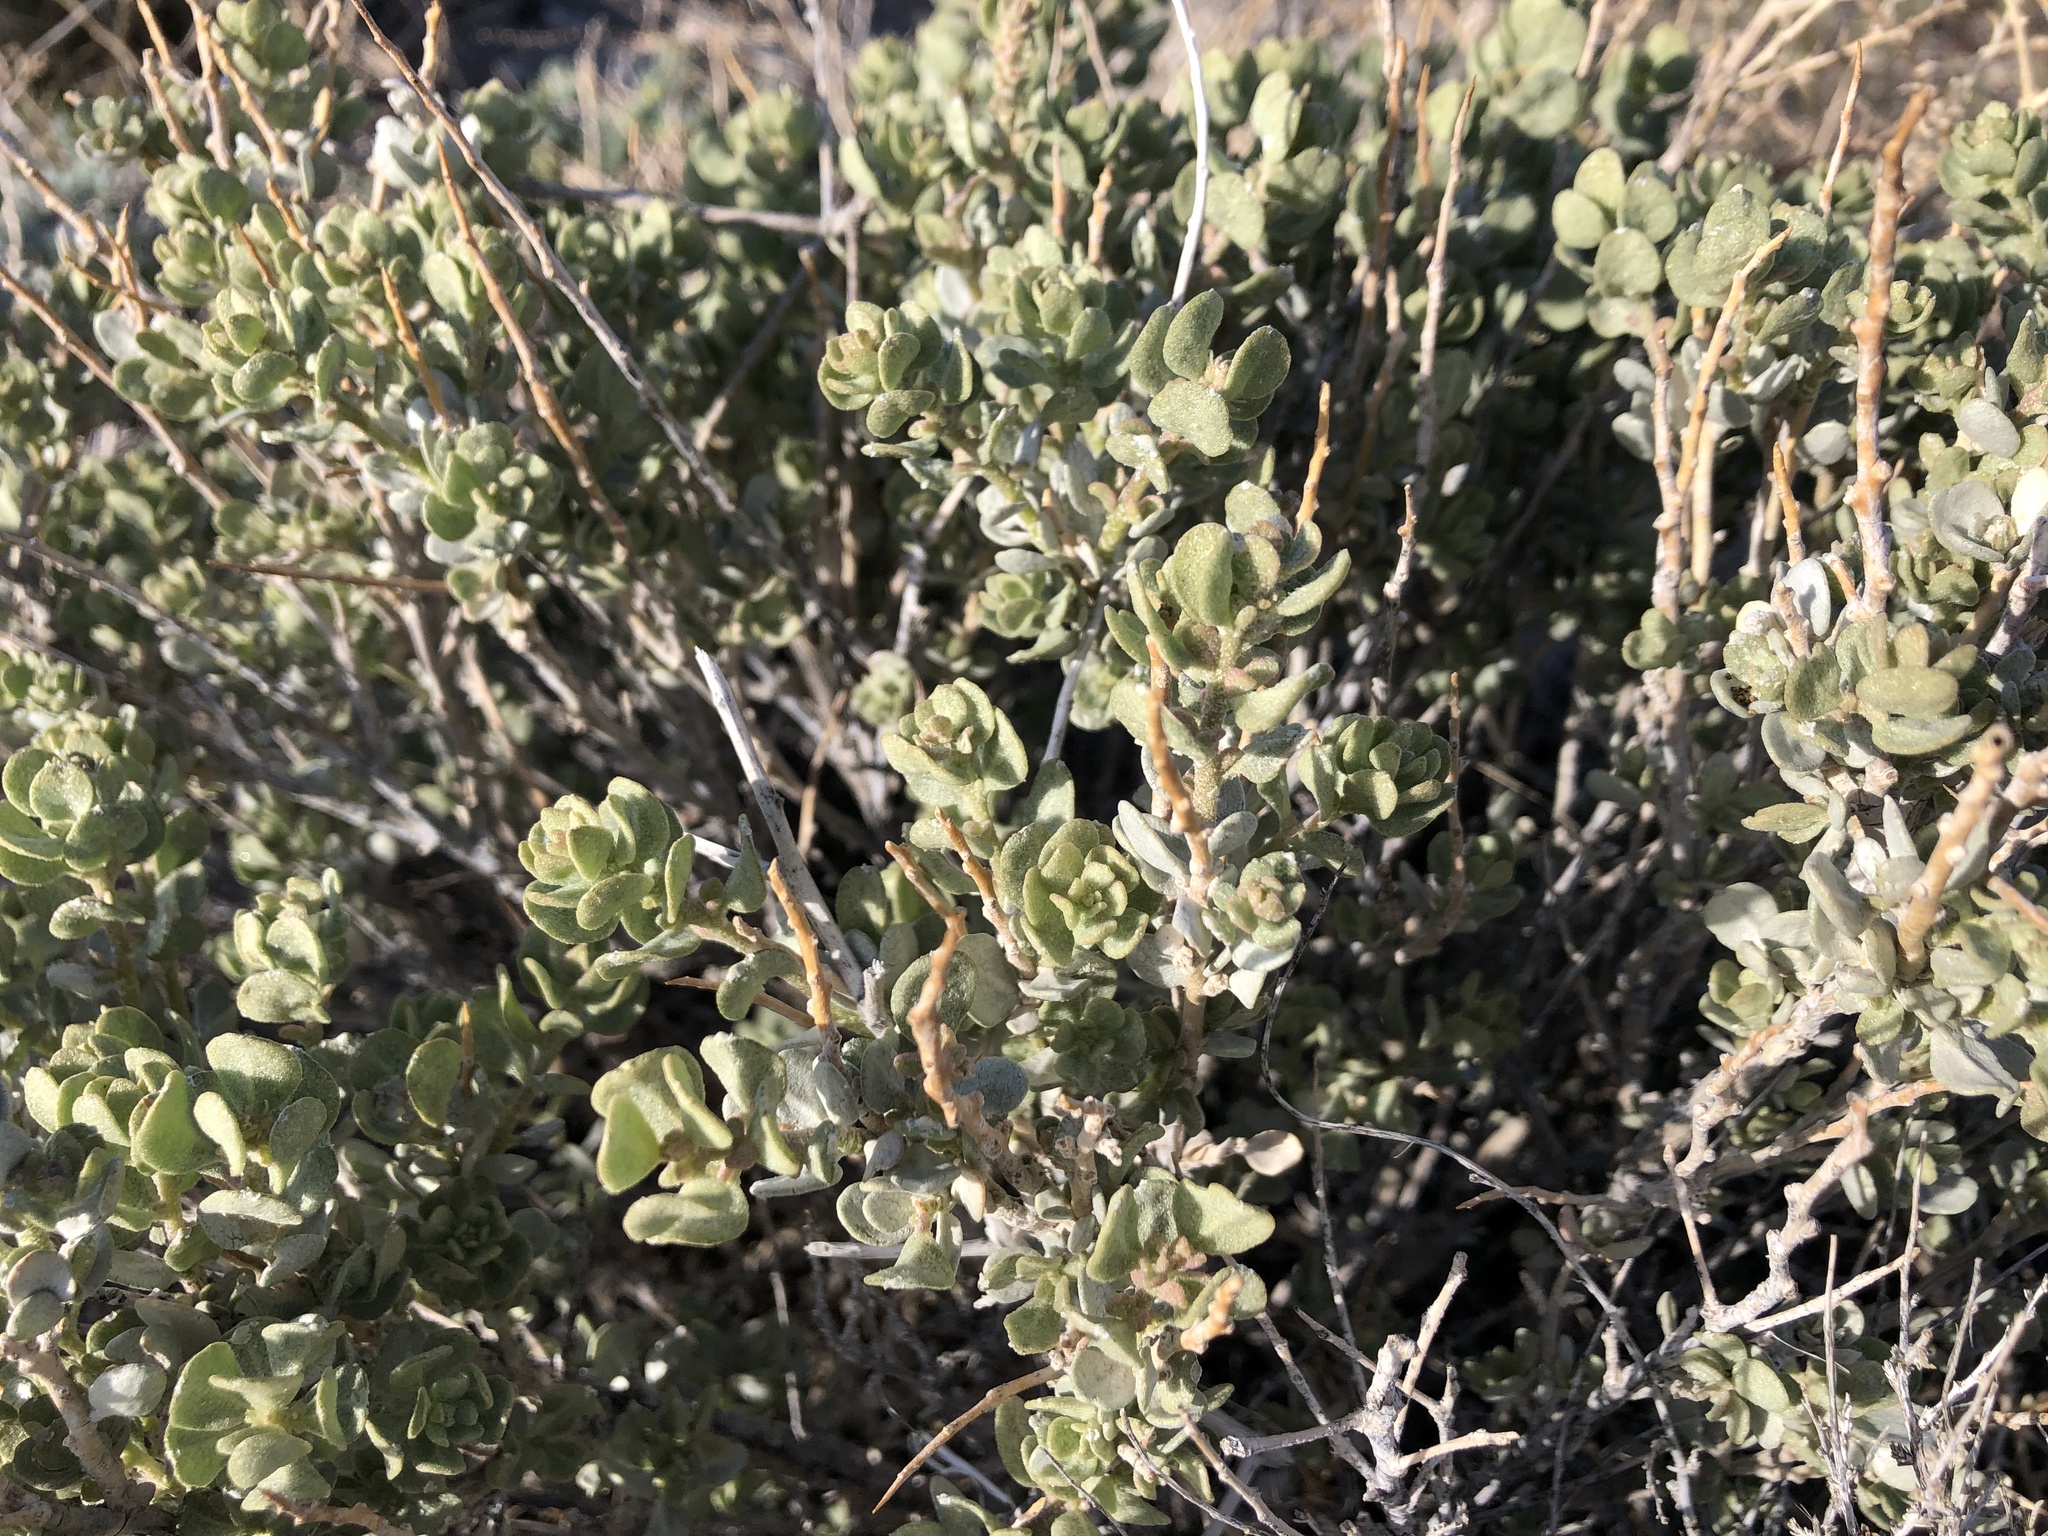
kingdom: Plantae
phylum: Tracheophyta
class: Magnoliopsida
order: Caryophyllales
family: Amaranthaceae
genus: Atriplex
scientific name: Atriplex confertifolia
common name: Shadscale
